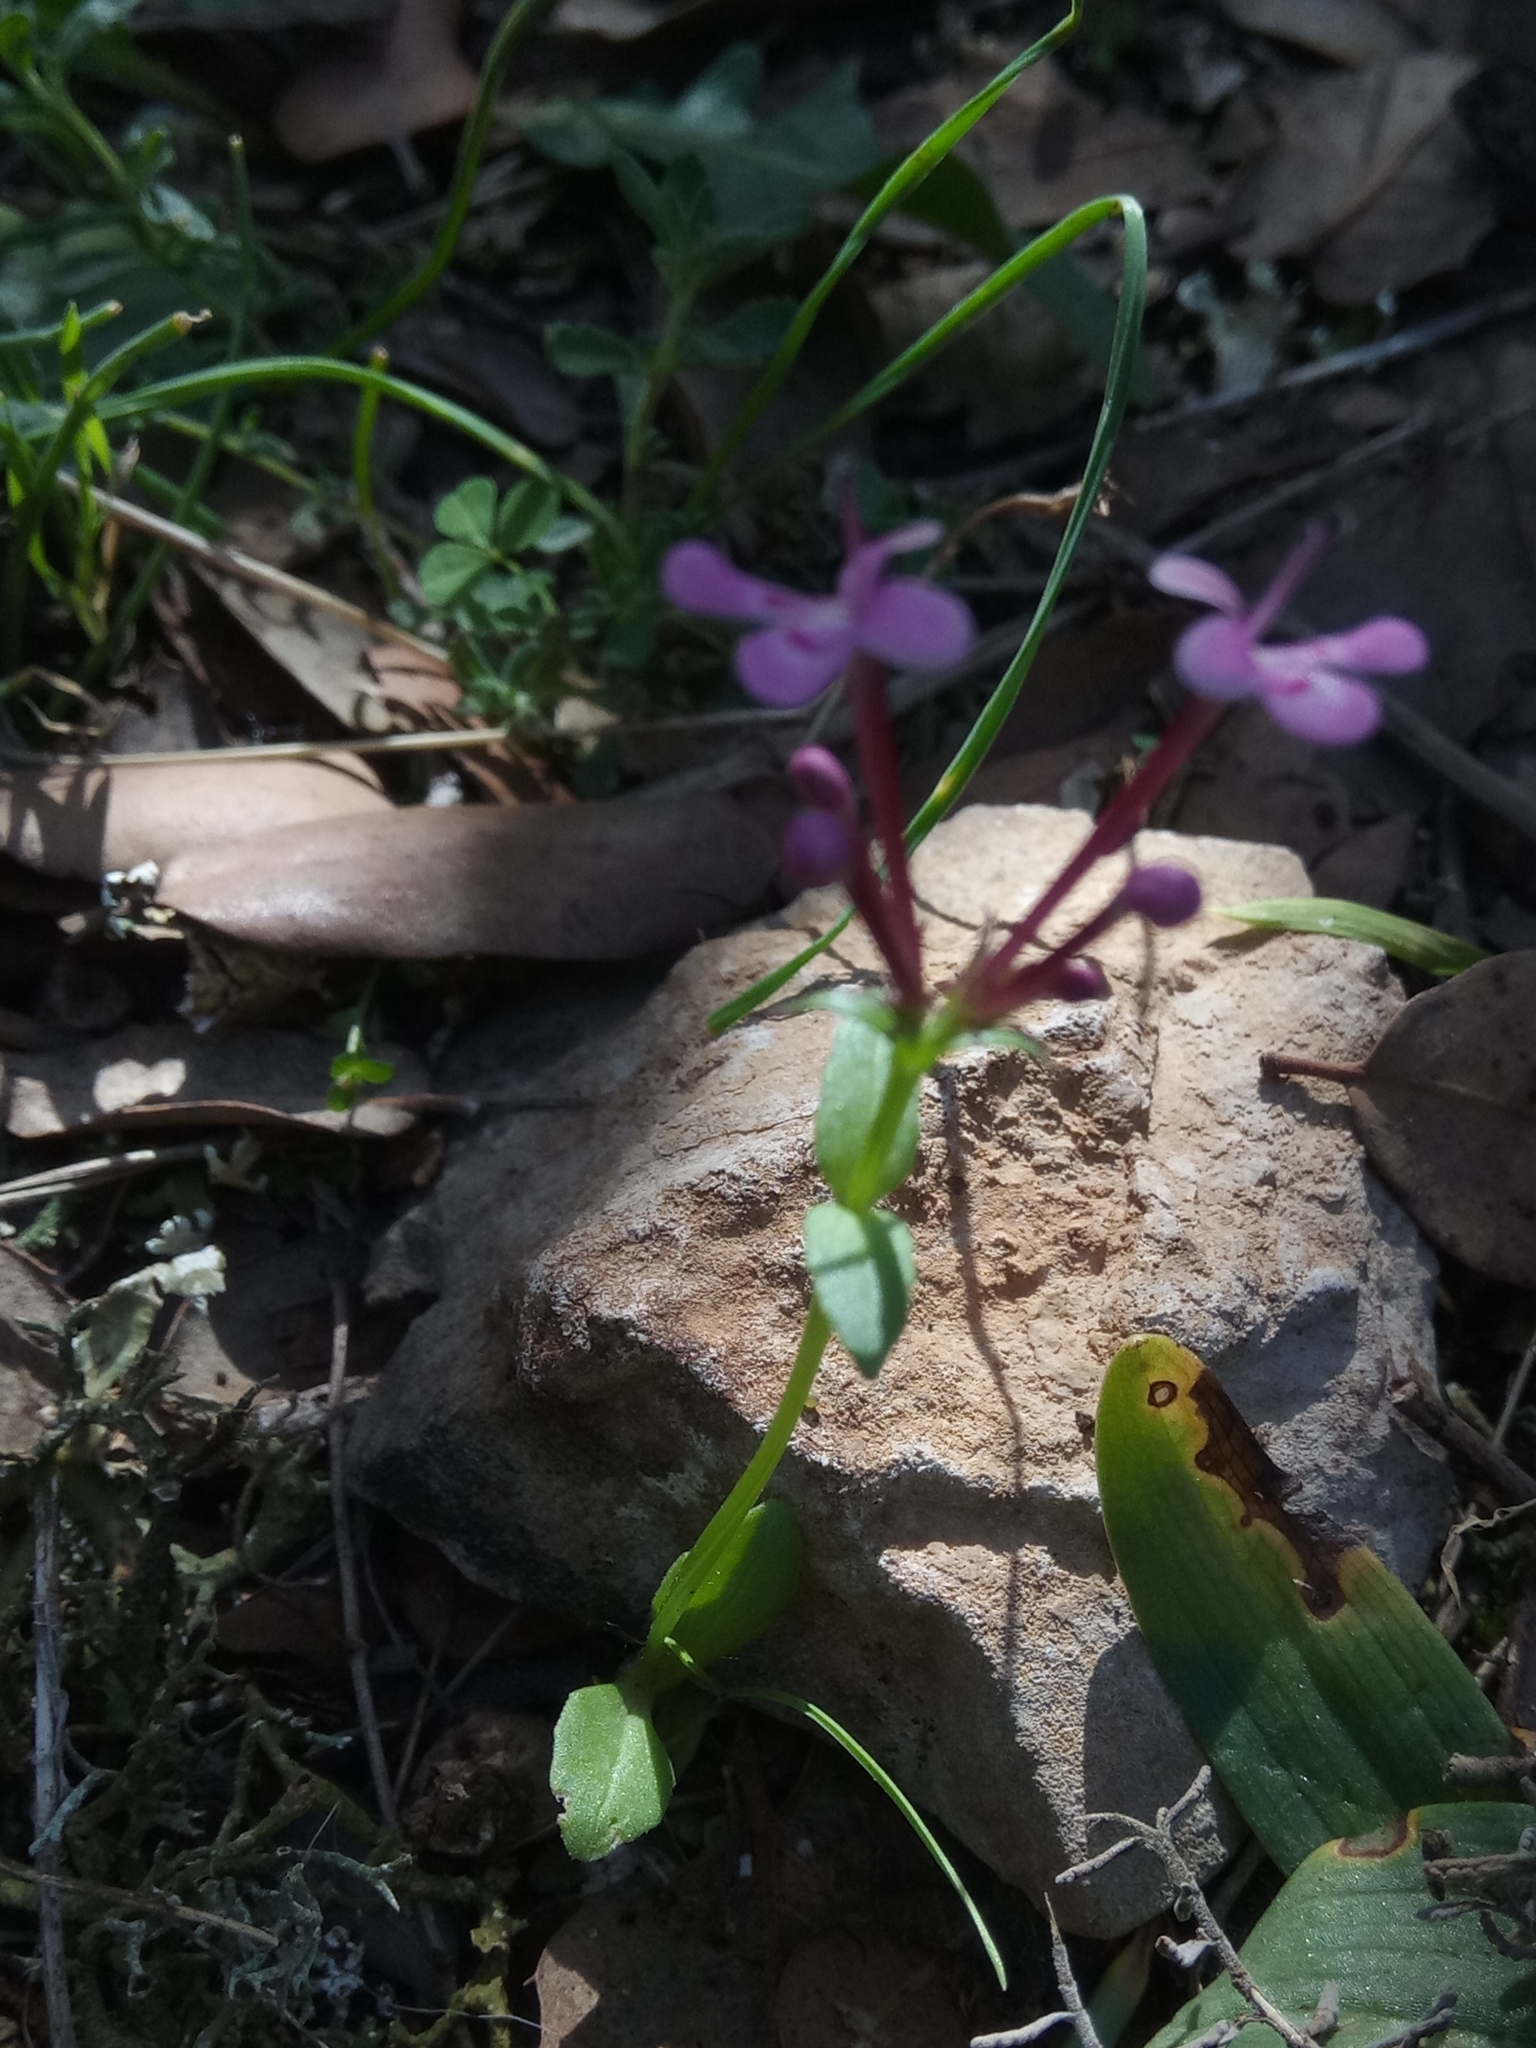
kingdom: Plantae
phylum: Tracheophyta
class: Magnoliopsida
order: Dipsacales
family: Caprifoliaceae
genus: Fedia
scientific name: Fedia graciliflora
